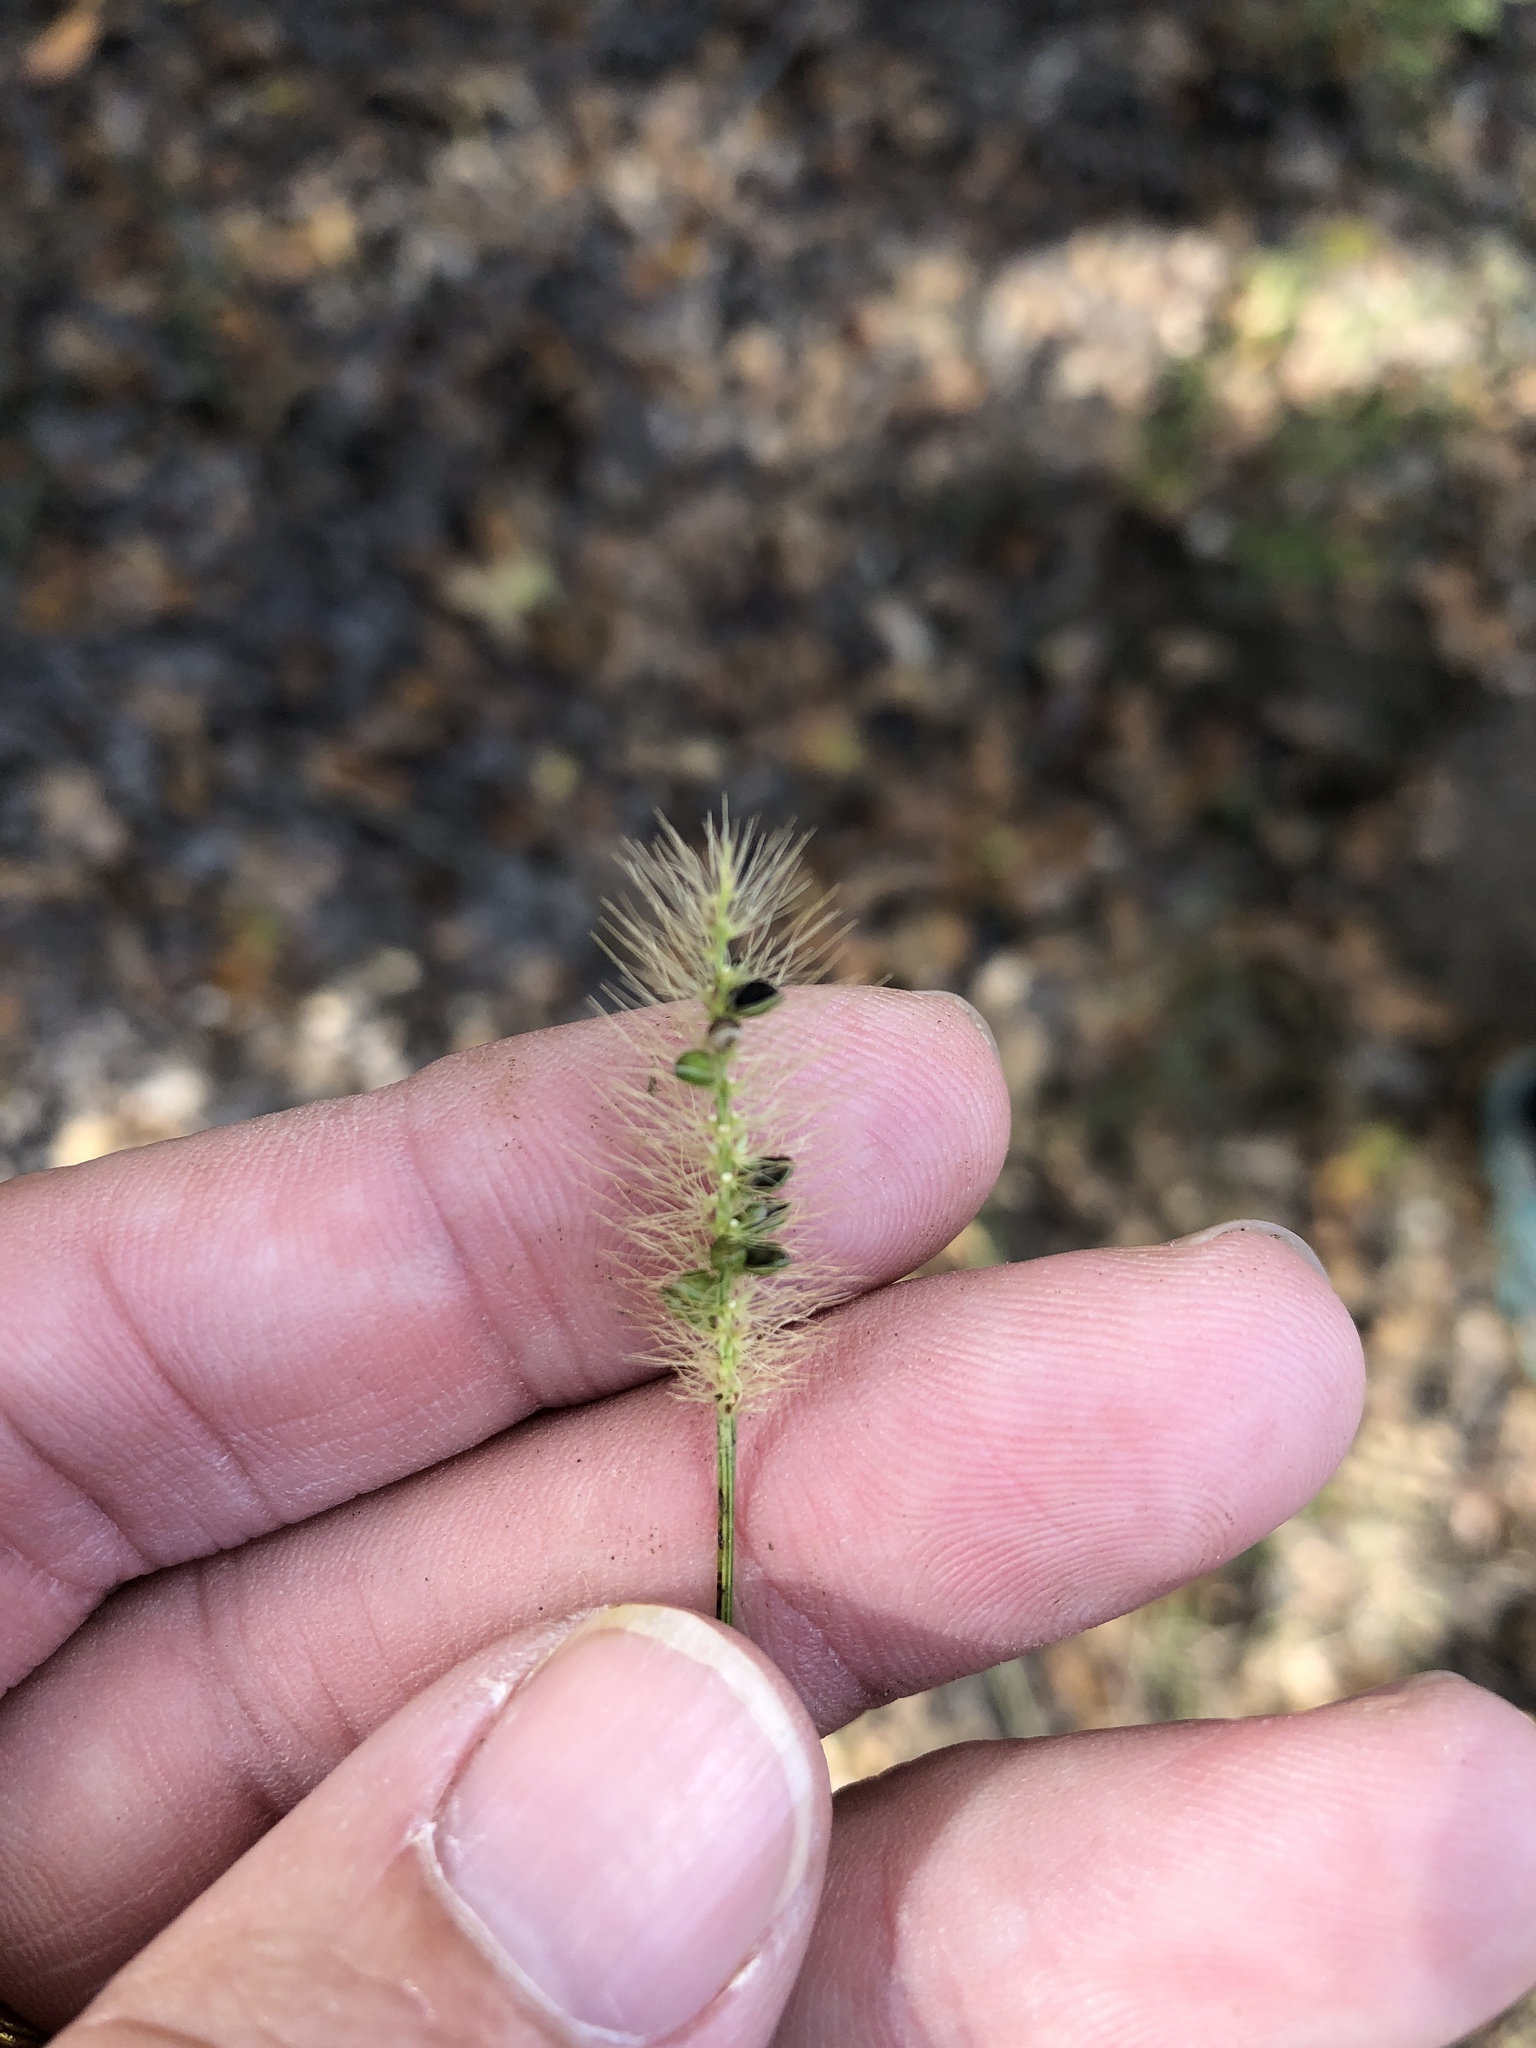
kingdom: Plantae
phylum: Tracheophyta
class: Liliopsida
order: Poales
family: Poaceae
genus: Setaria
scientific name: Setaria parviflora
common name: Knotroot bristle-grass
